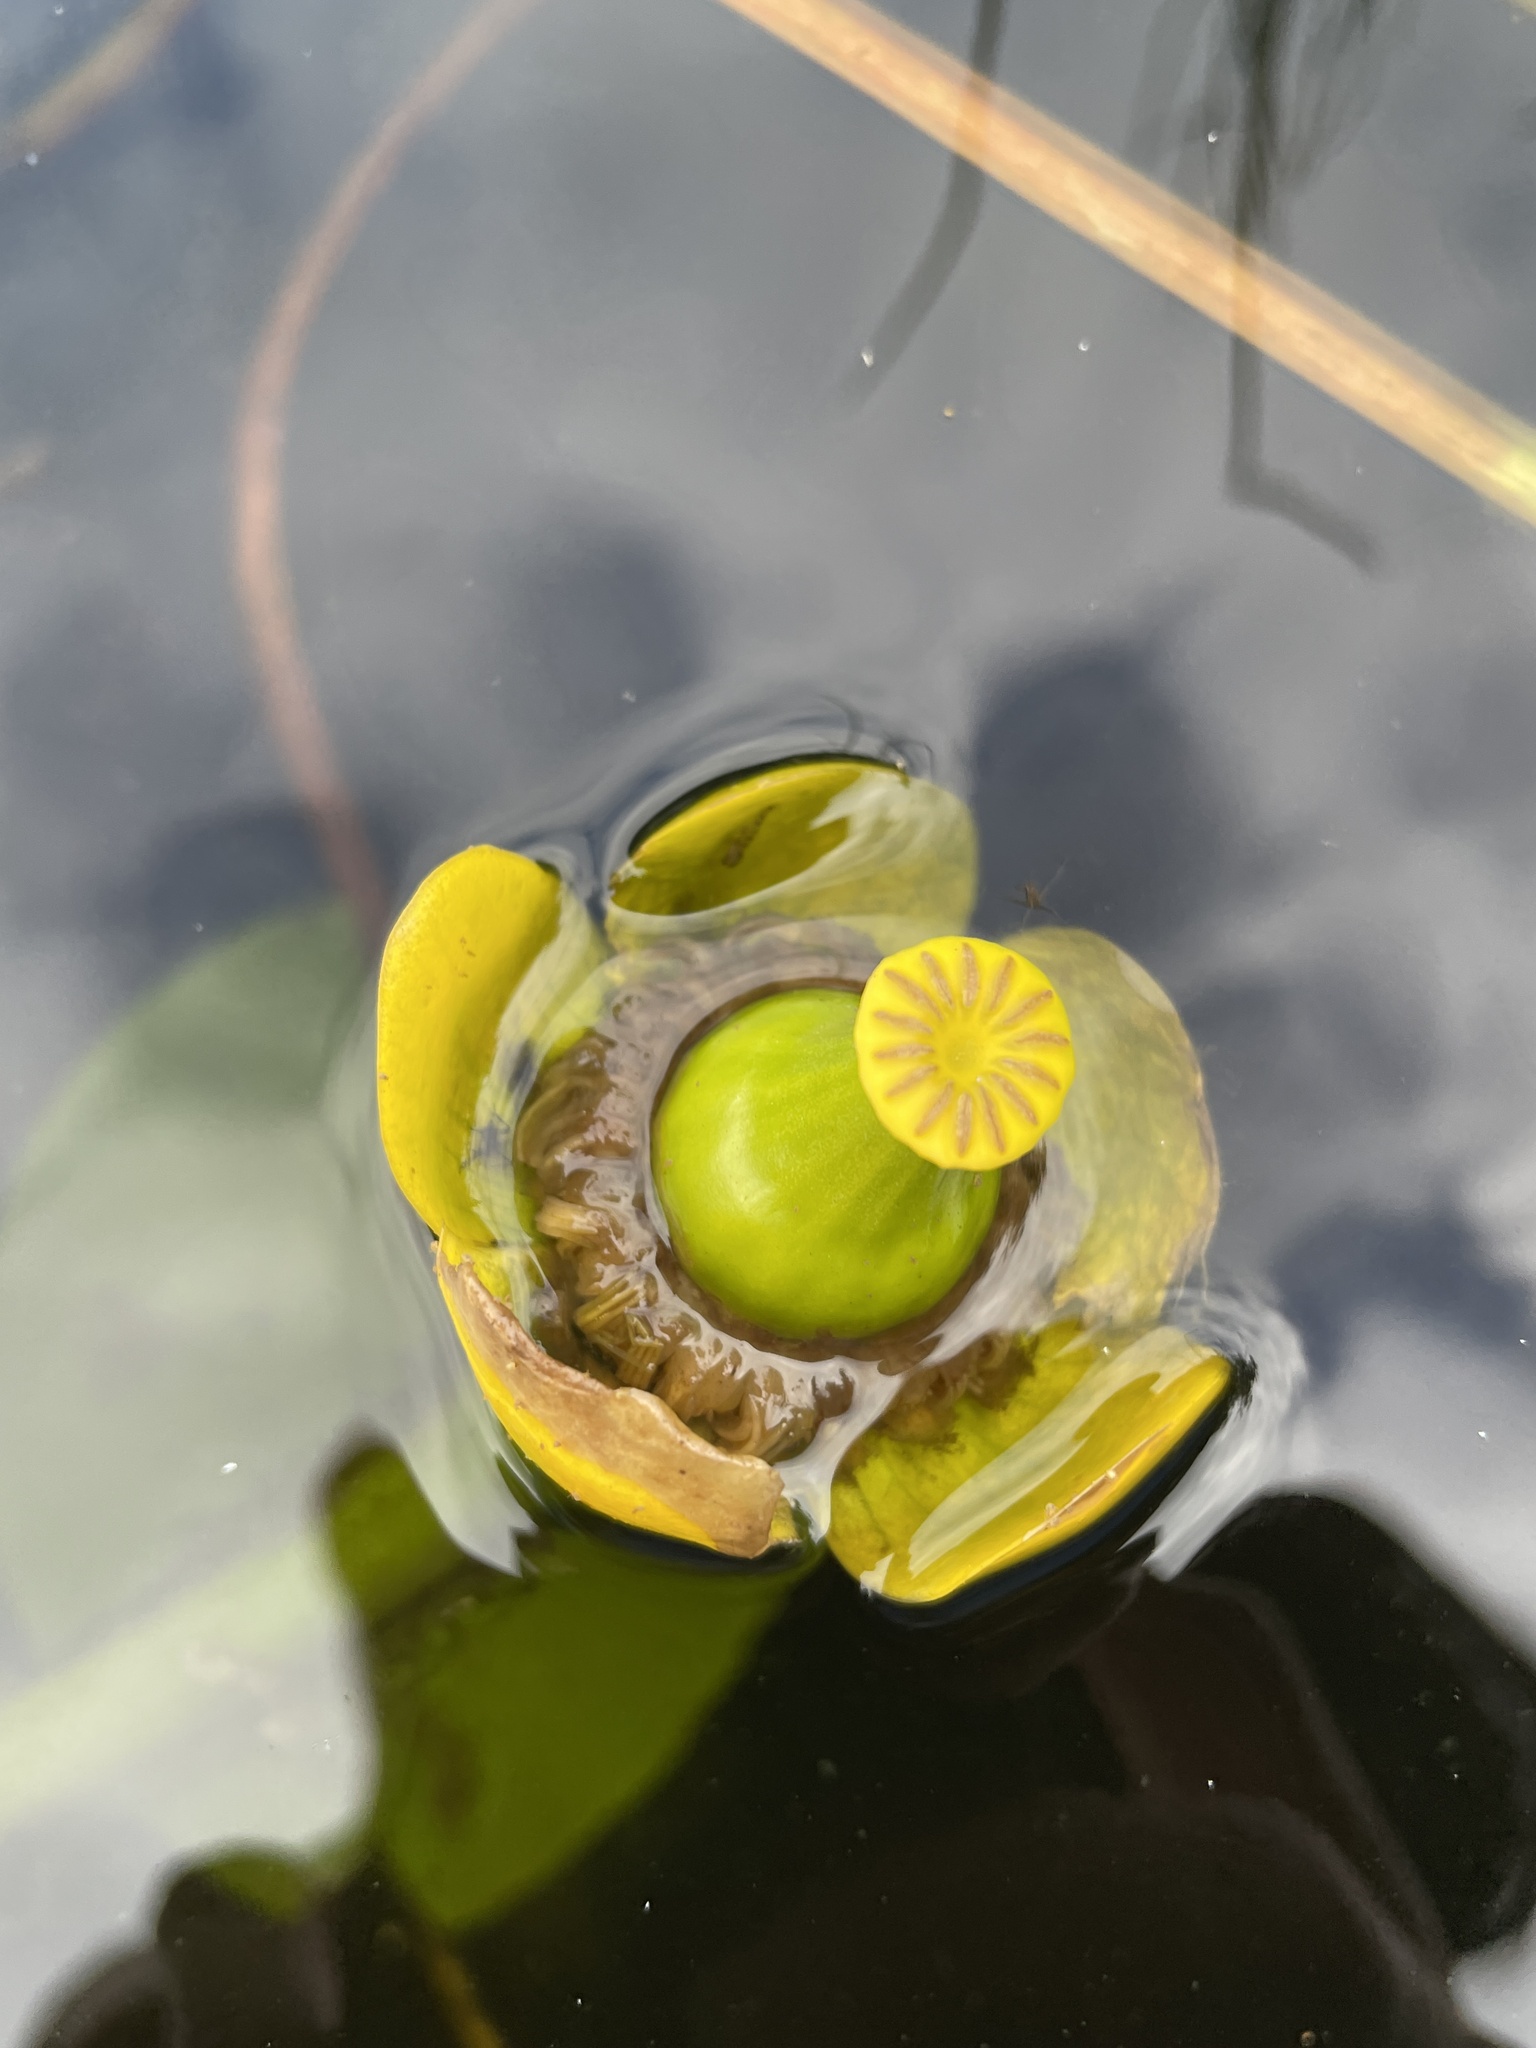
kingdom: Plantae
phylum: Tracheophyta
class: Magnoliopsida
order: Nymphaeales
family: Nymphaeaceae
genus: Nuphar
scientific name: Nuphar lutea
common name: Yellow water-lily
